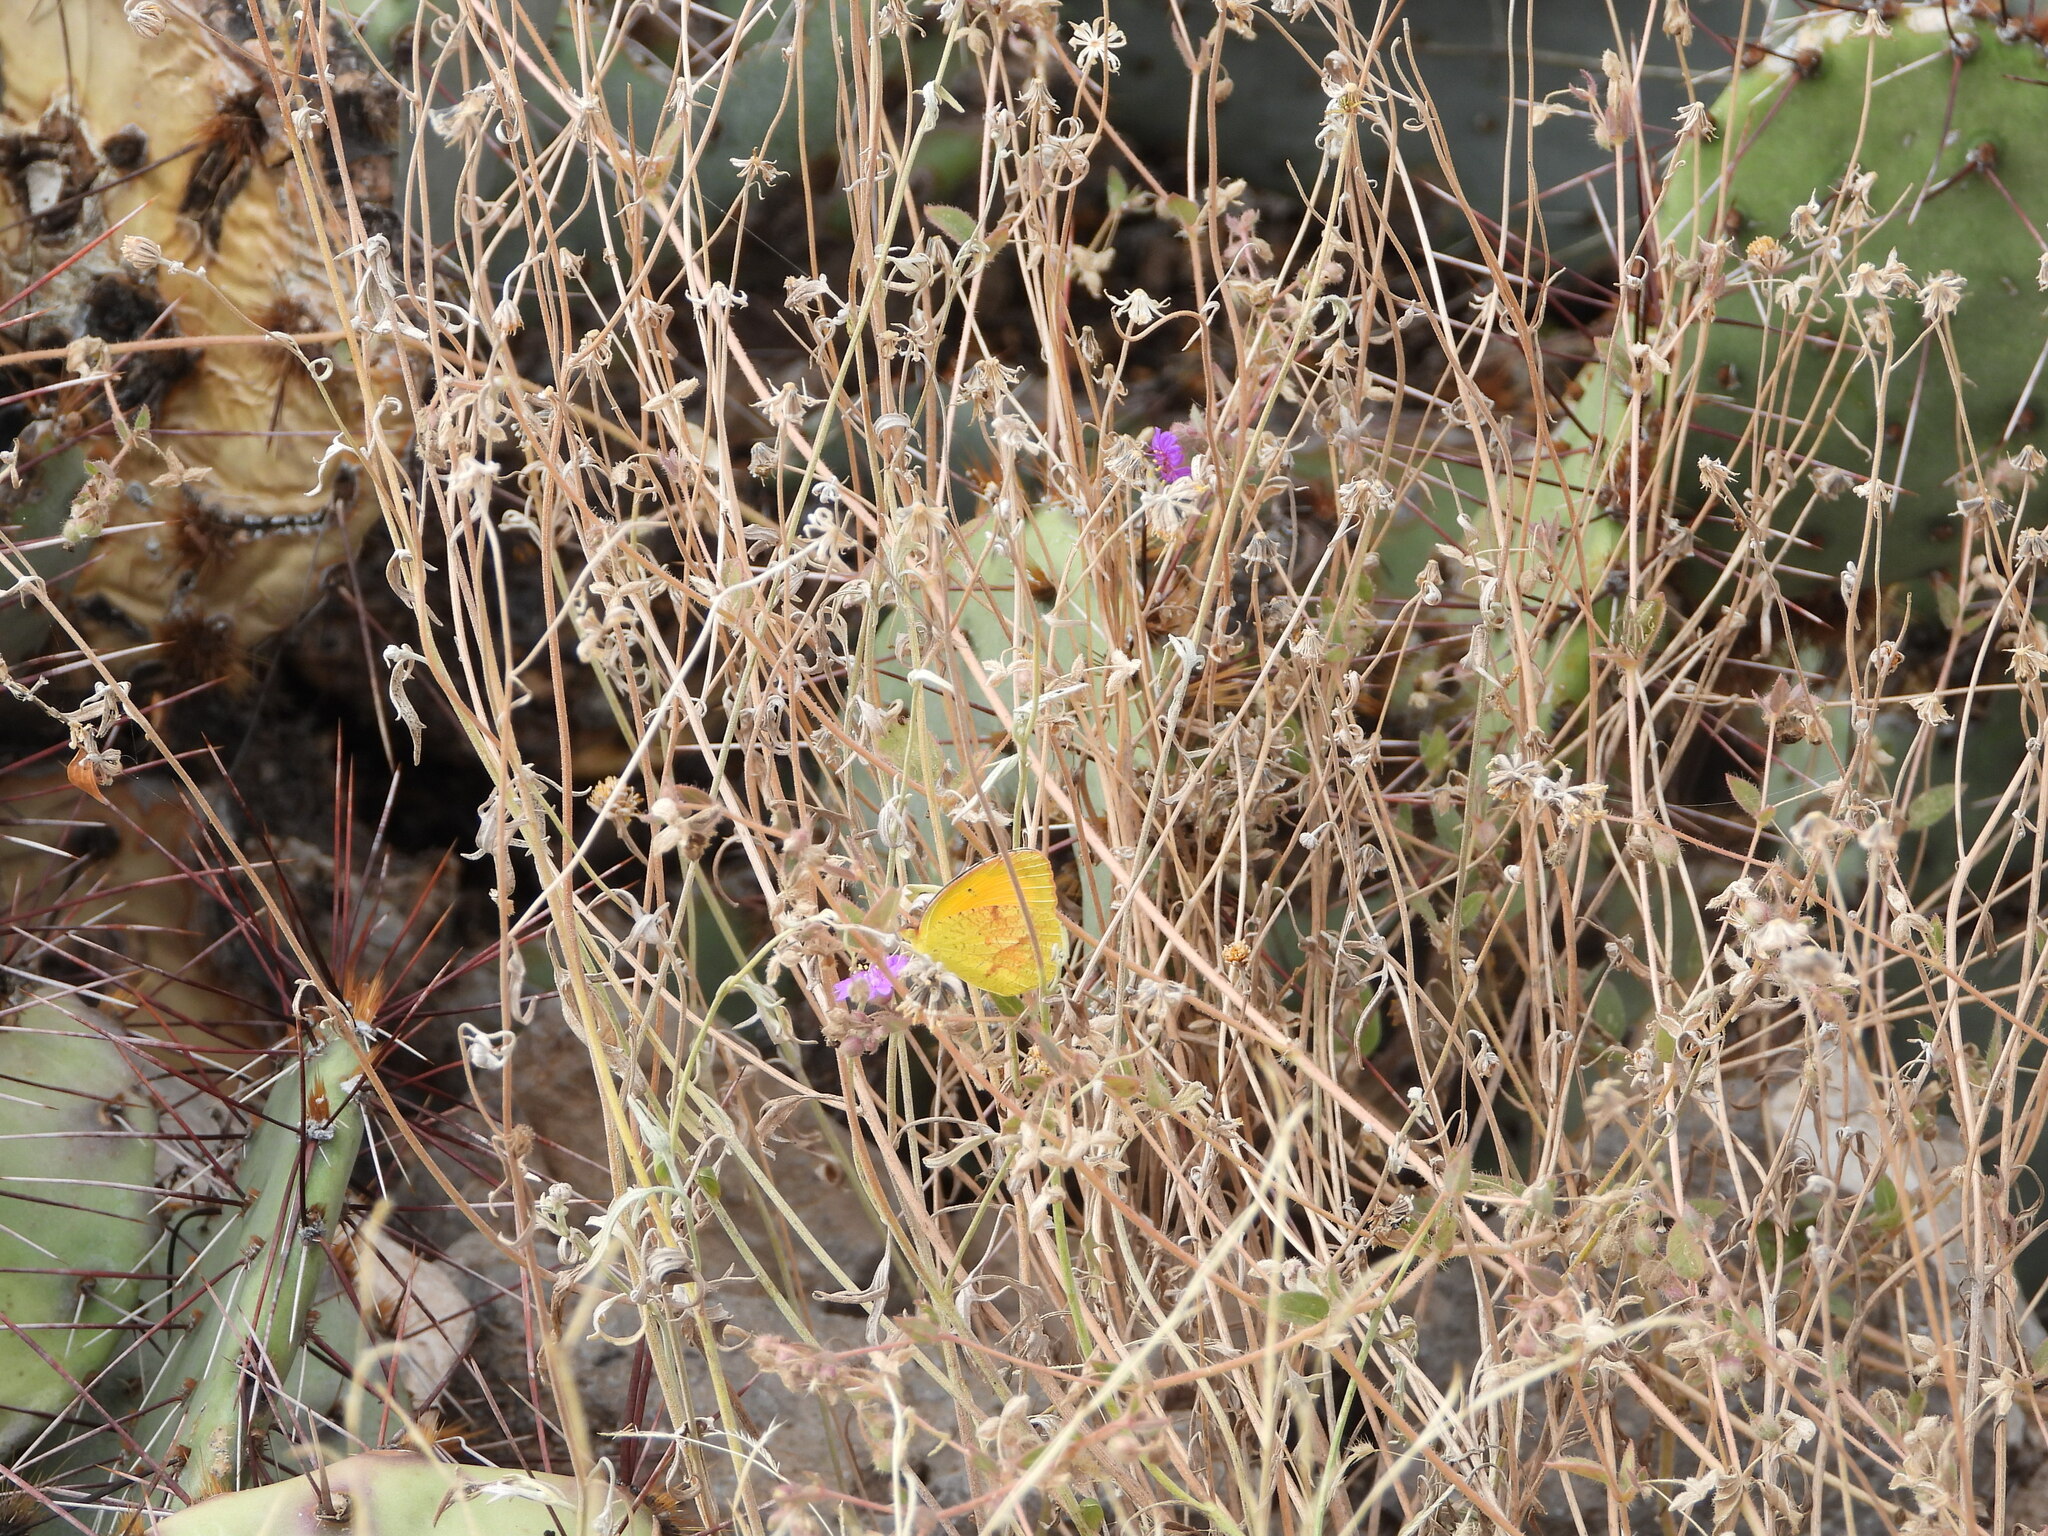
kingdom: Animalia
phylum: Arthropoda
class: Insecta
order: Lepidoptera
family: Pieridae
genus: Abaeis
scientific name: Abaeis nicippe
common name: Sleepy orange
